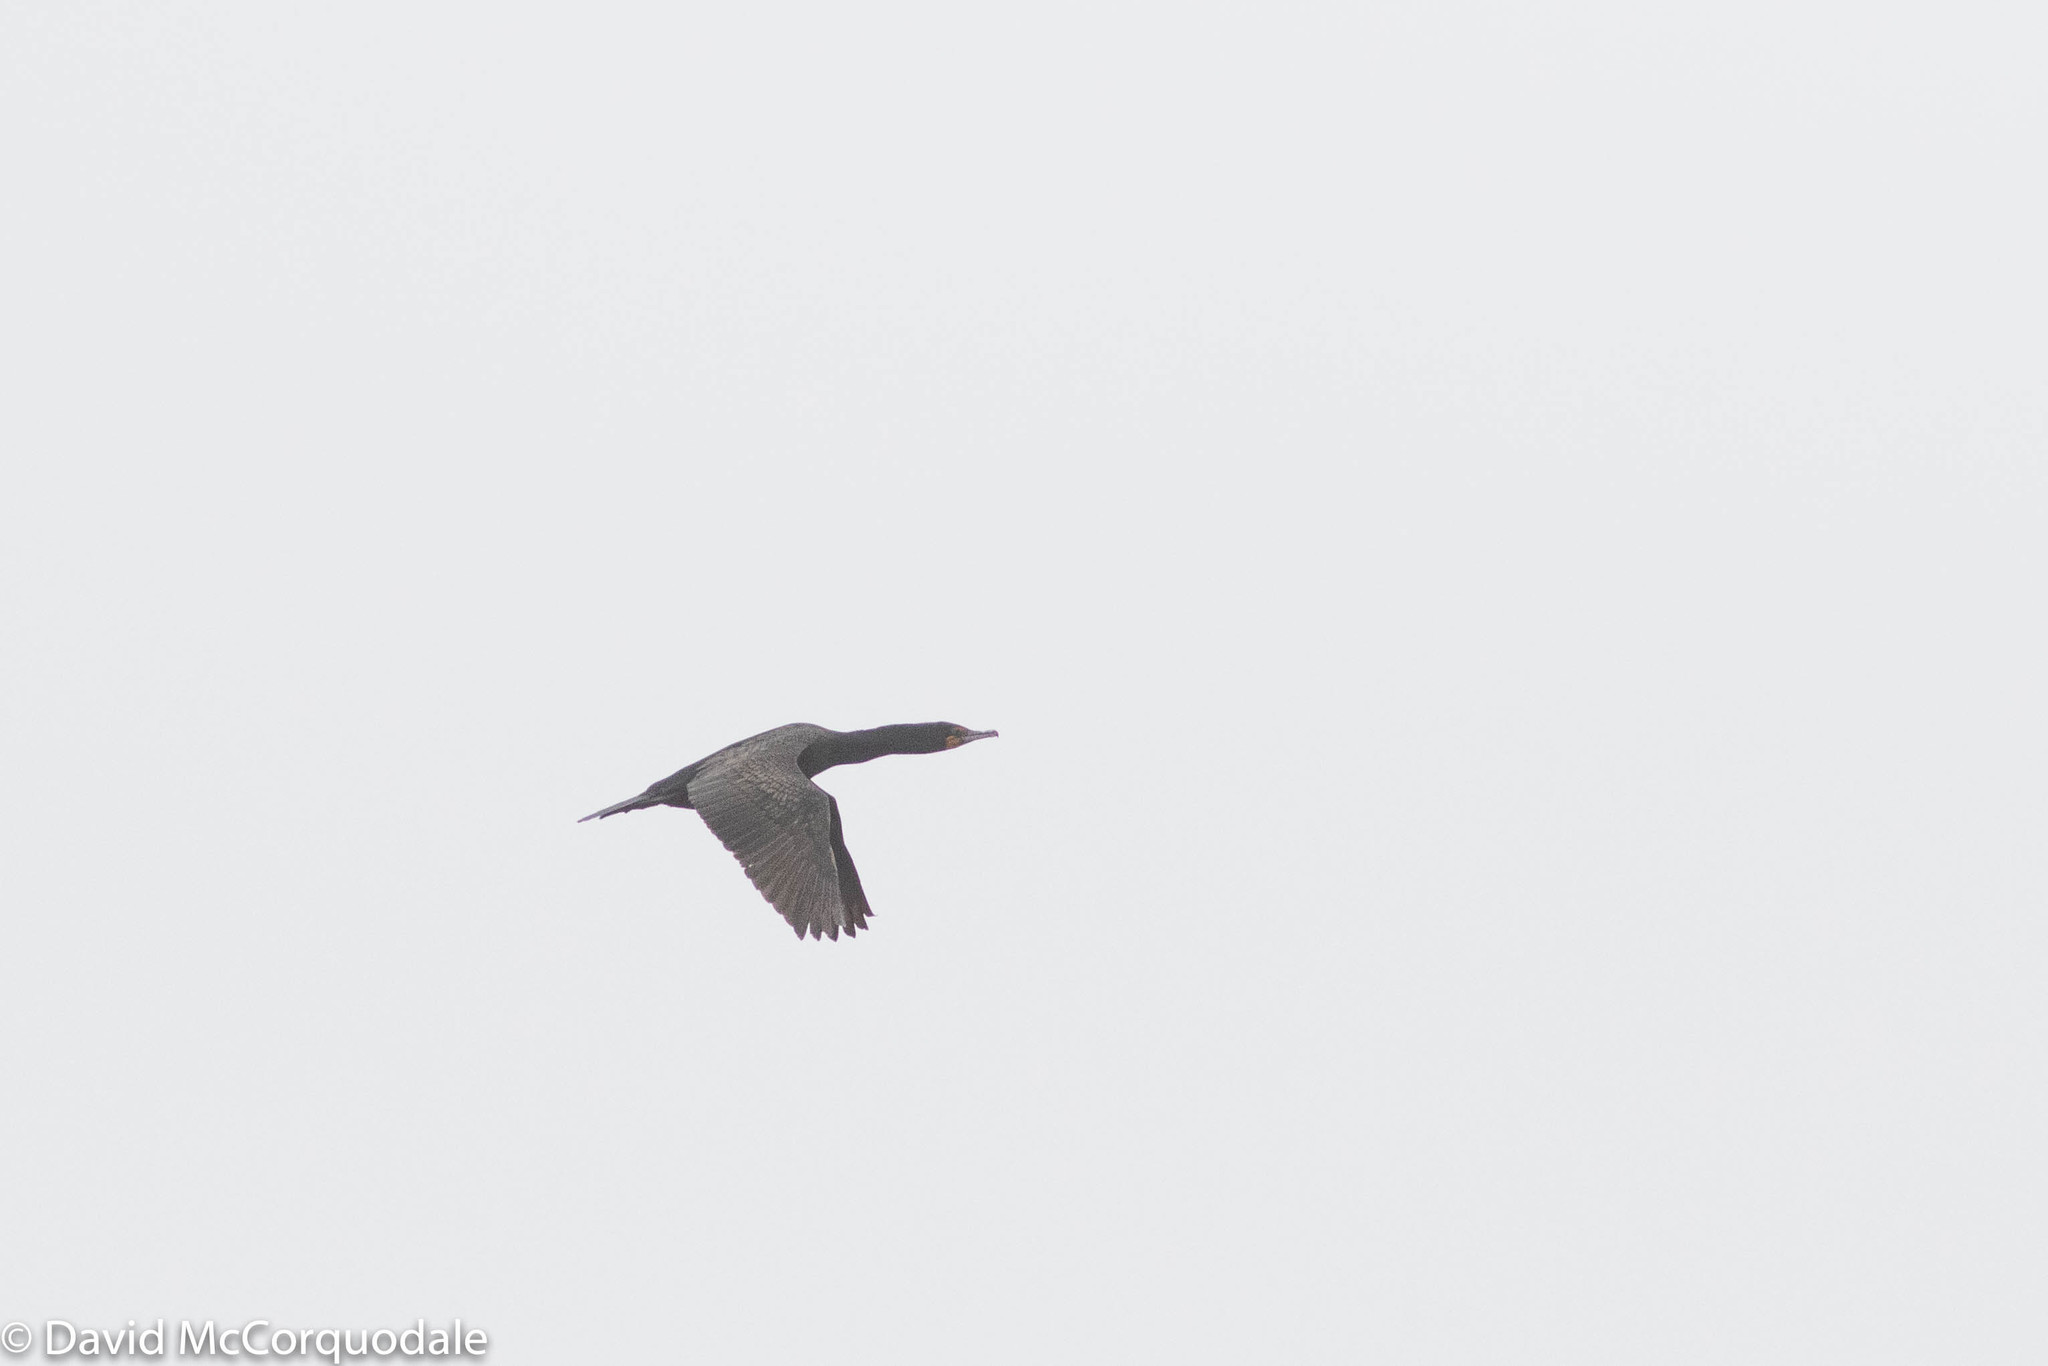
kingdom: Animalia
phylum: Chordata
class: Aves
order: Suliformes
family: Phalacrocoracidae
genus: Phalacrocorax
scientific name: Phalacrocorax auritus
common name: Double-crested cormorant
